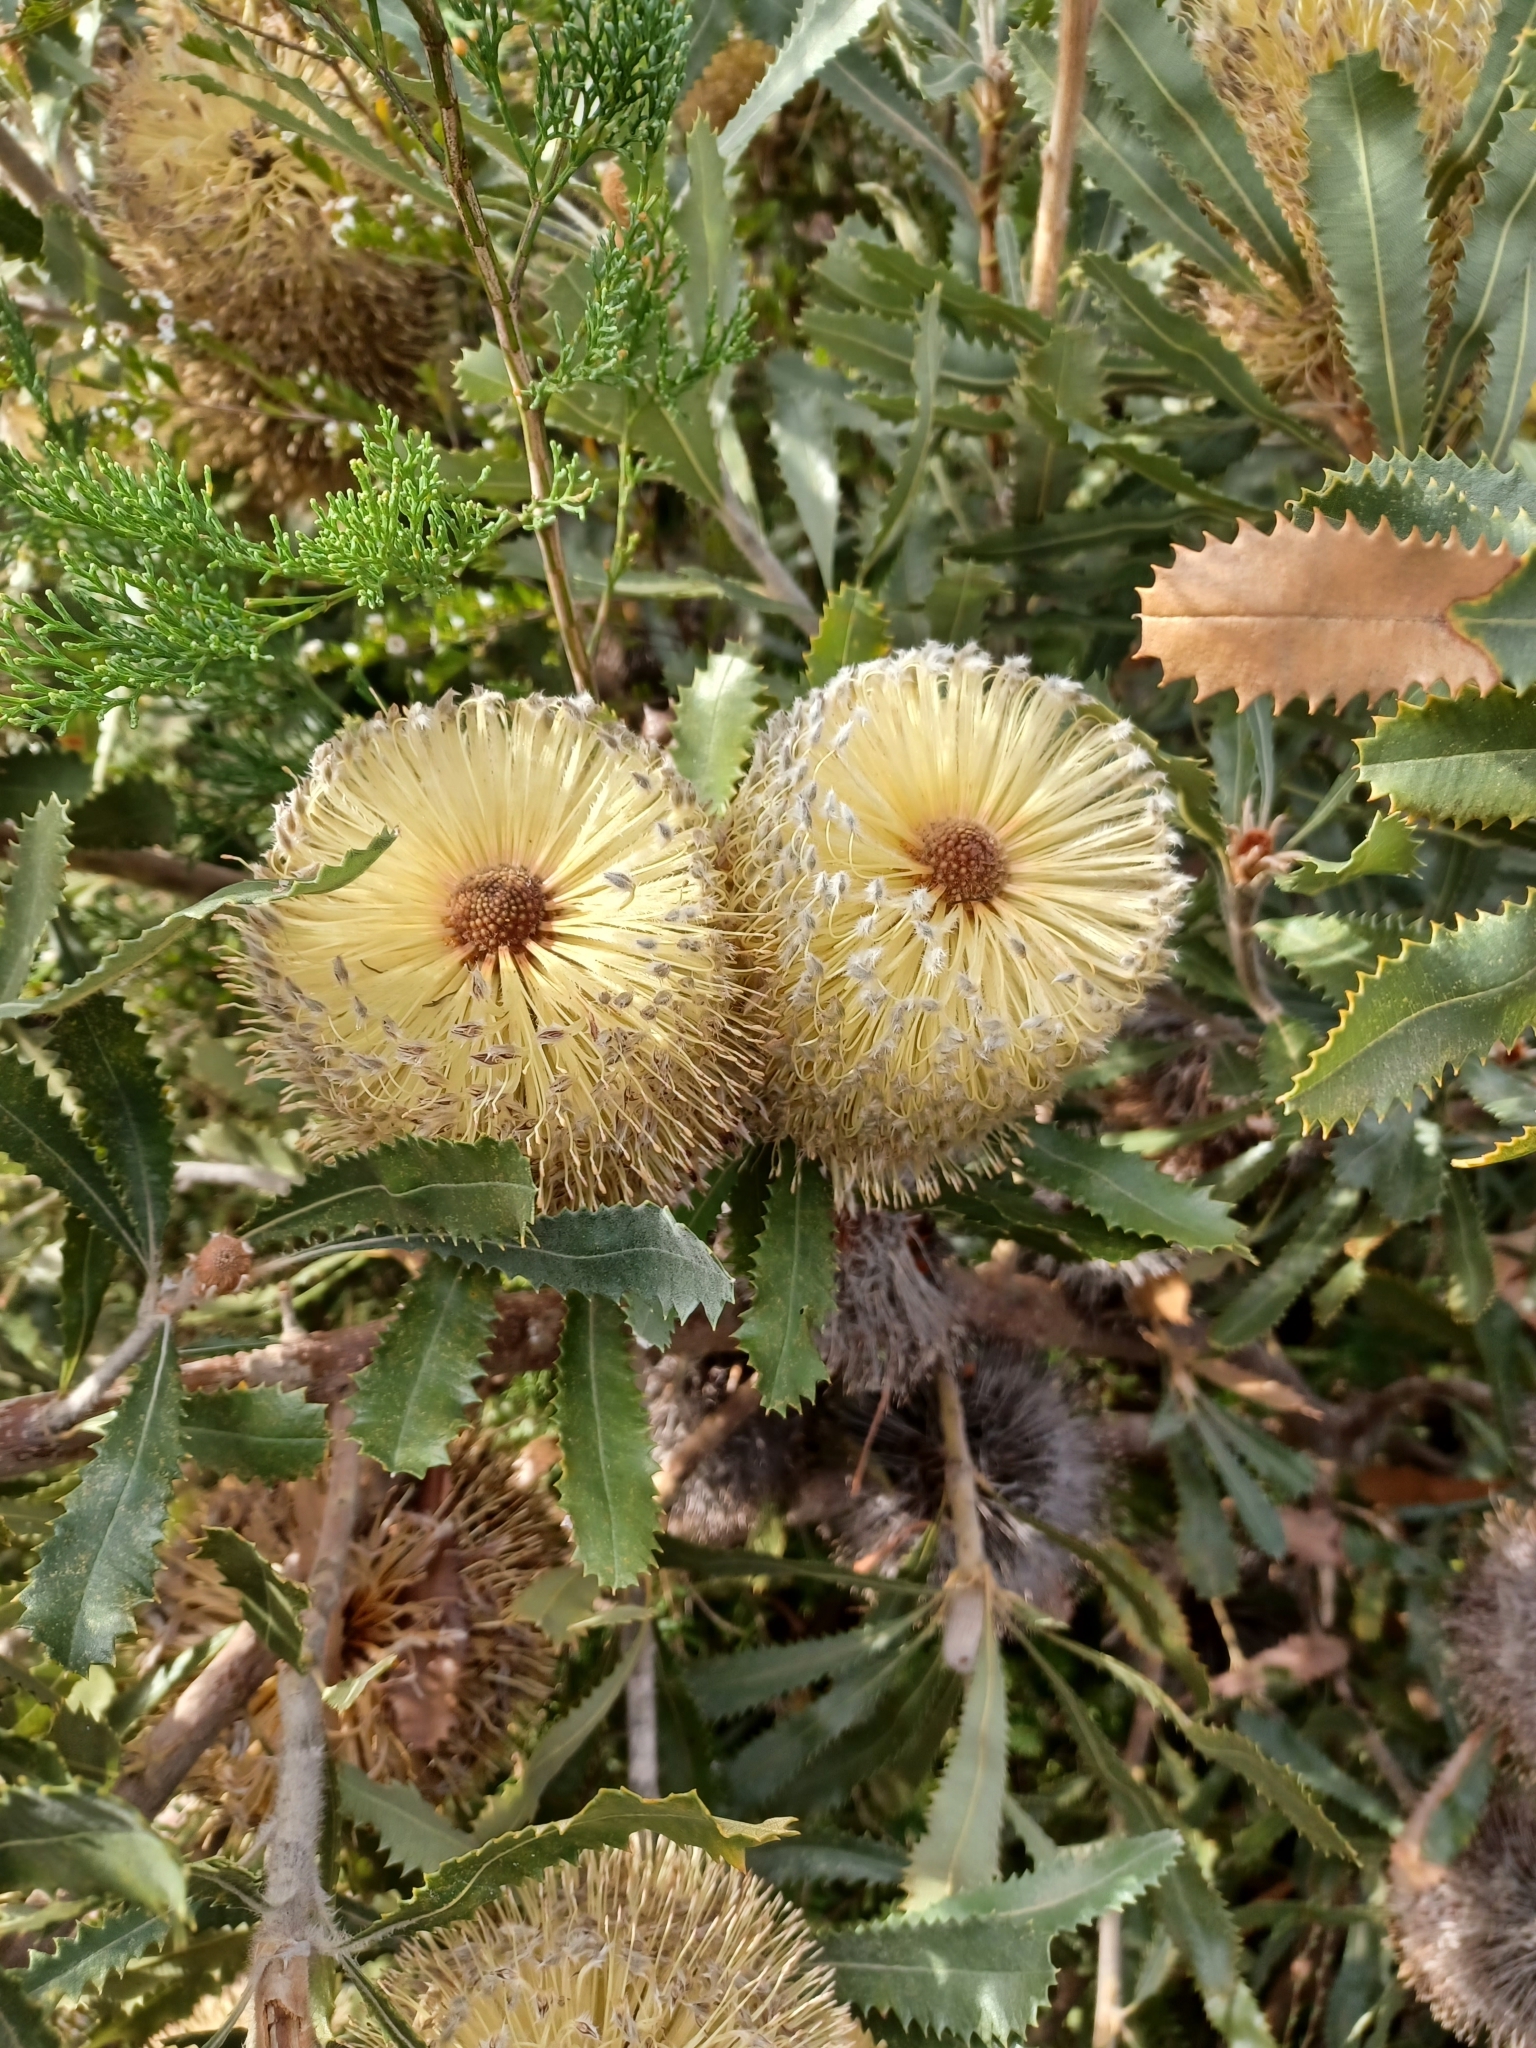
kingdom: Plantae
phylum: Tracheophyta
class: Magnoliopsida
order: Proteales
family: Proteaceae
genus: Banksia
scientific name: Banksia ornata
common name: Desert banksia
